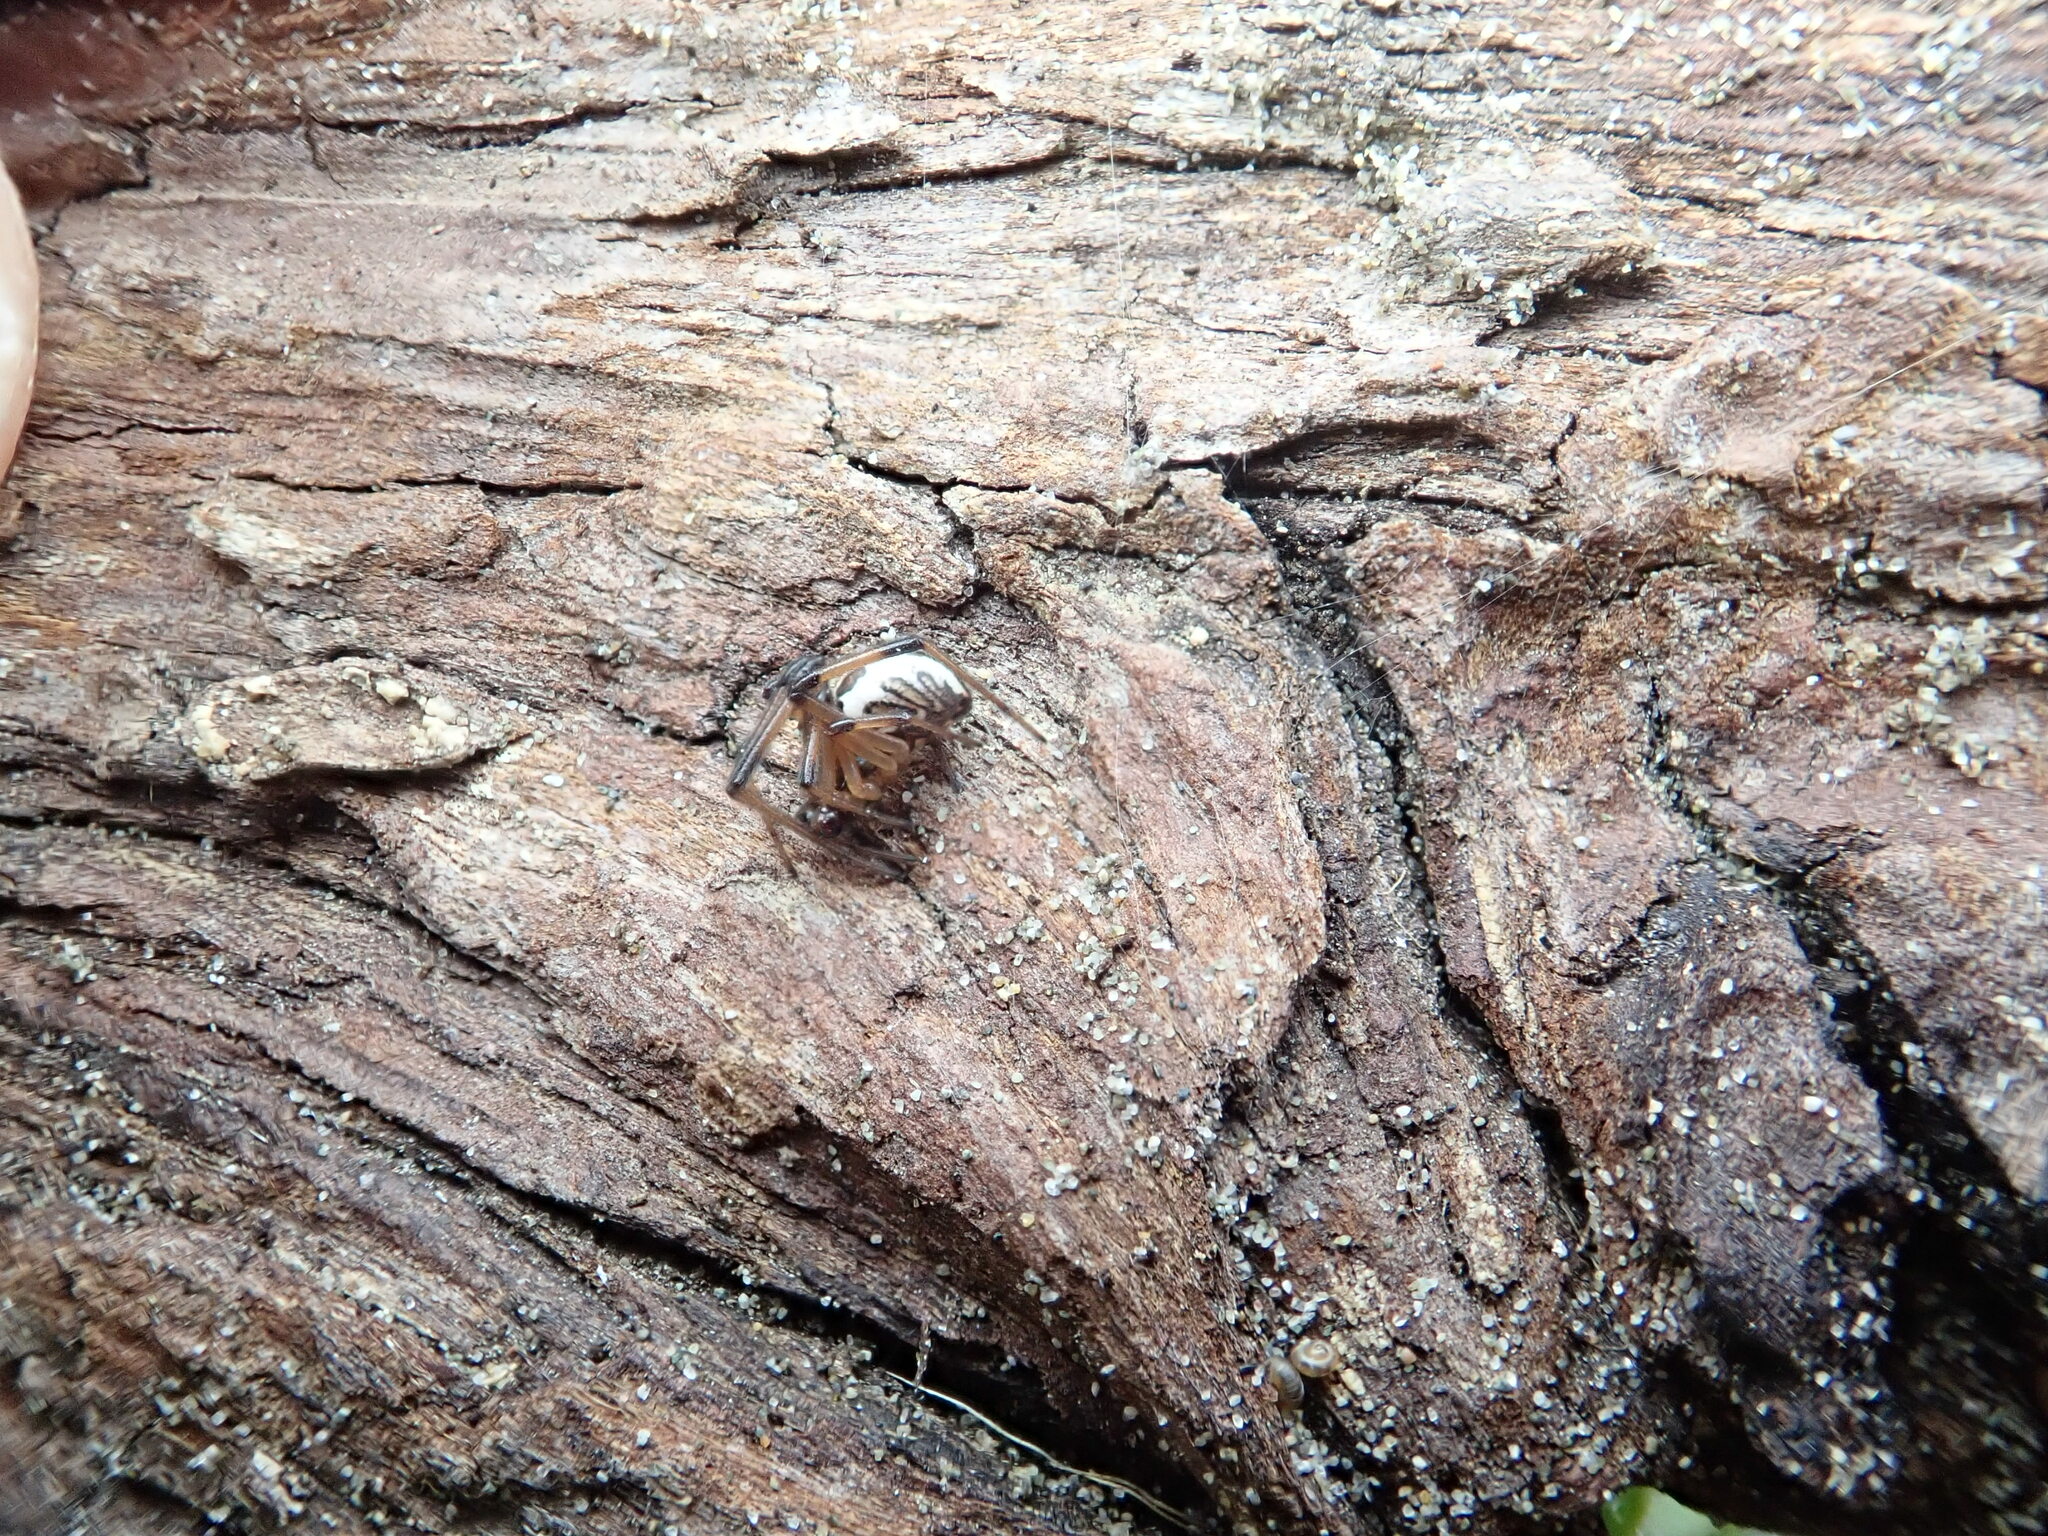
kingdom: Animalia
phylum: Arthropoda
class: Arachnida
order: Araneae
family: Theridiidae
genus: Latrodectus
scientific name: Latrodectus katipo
